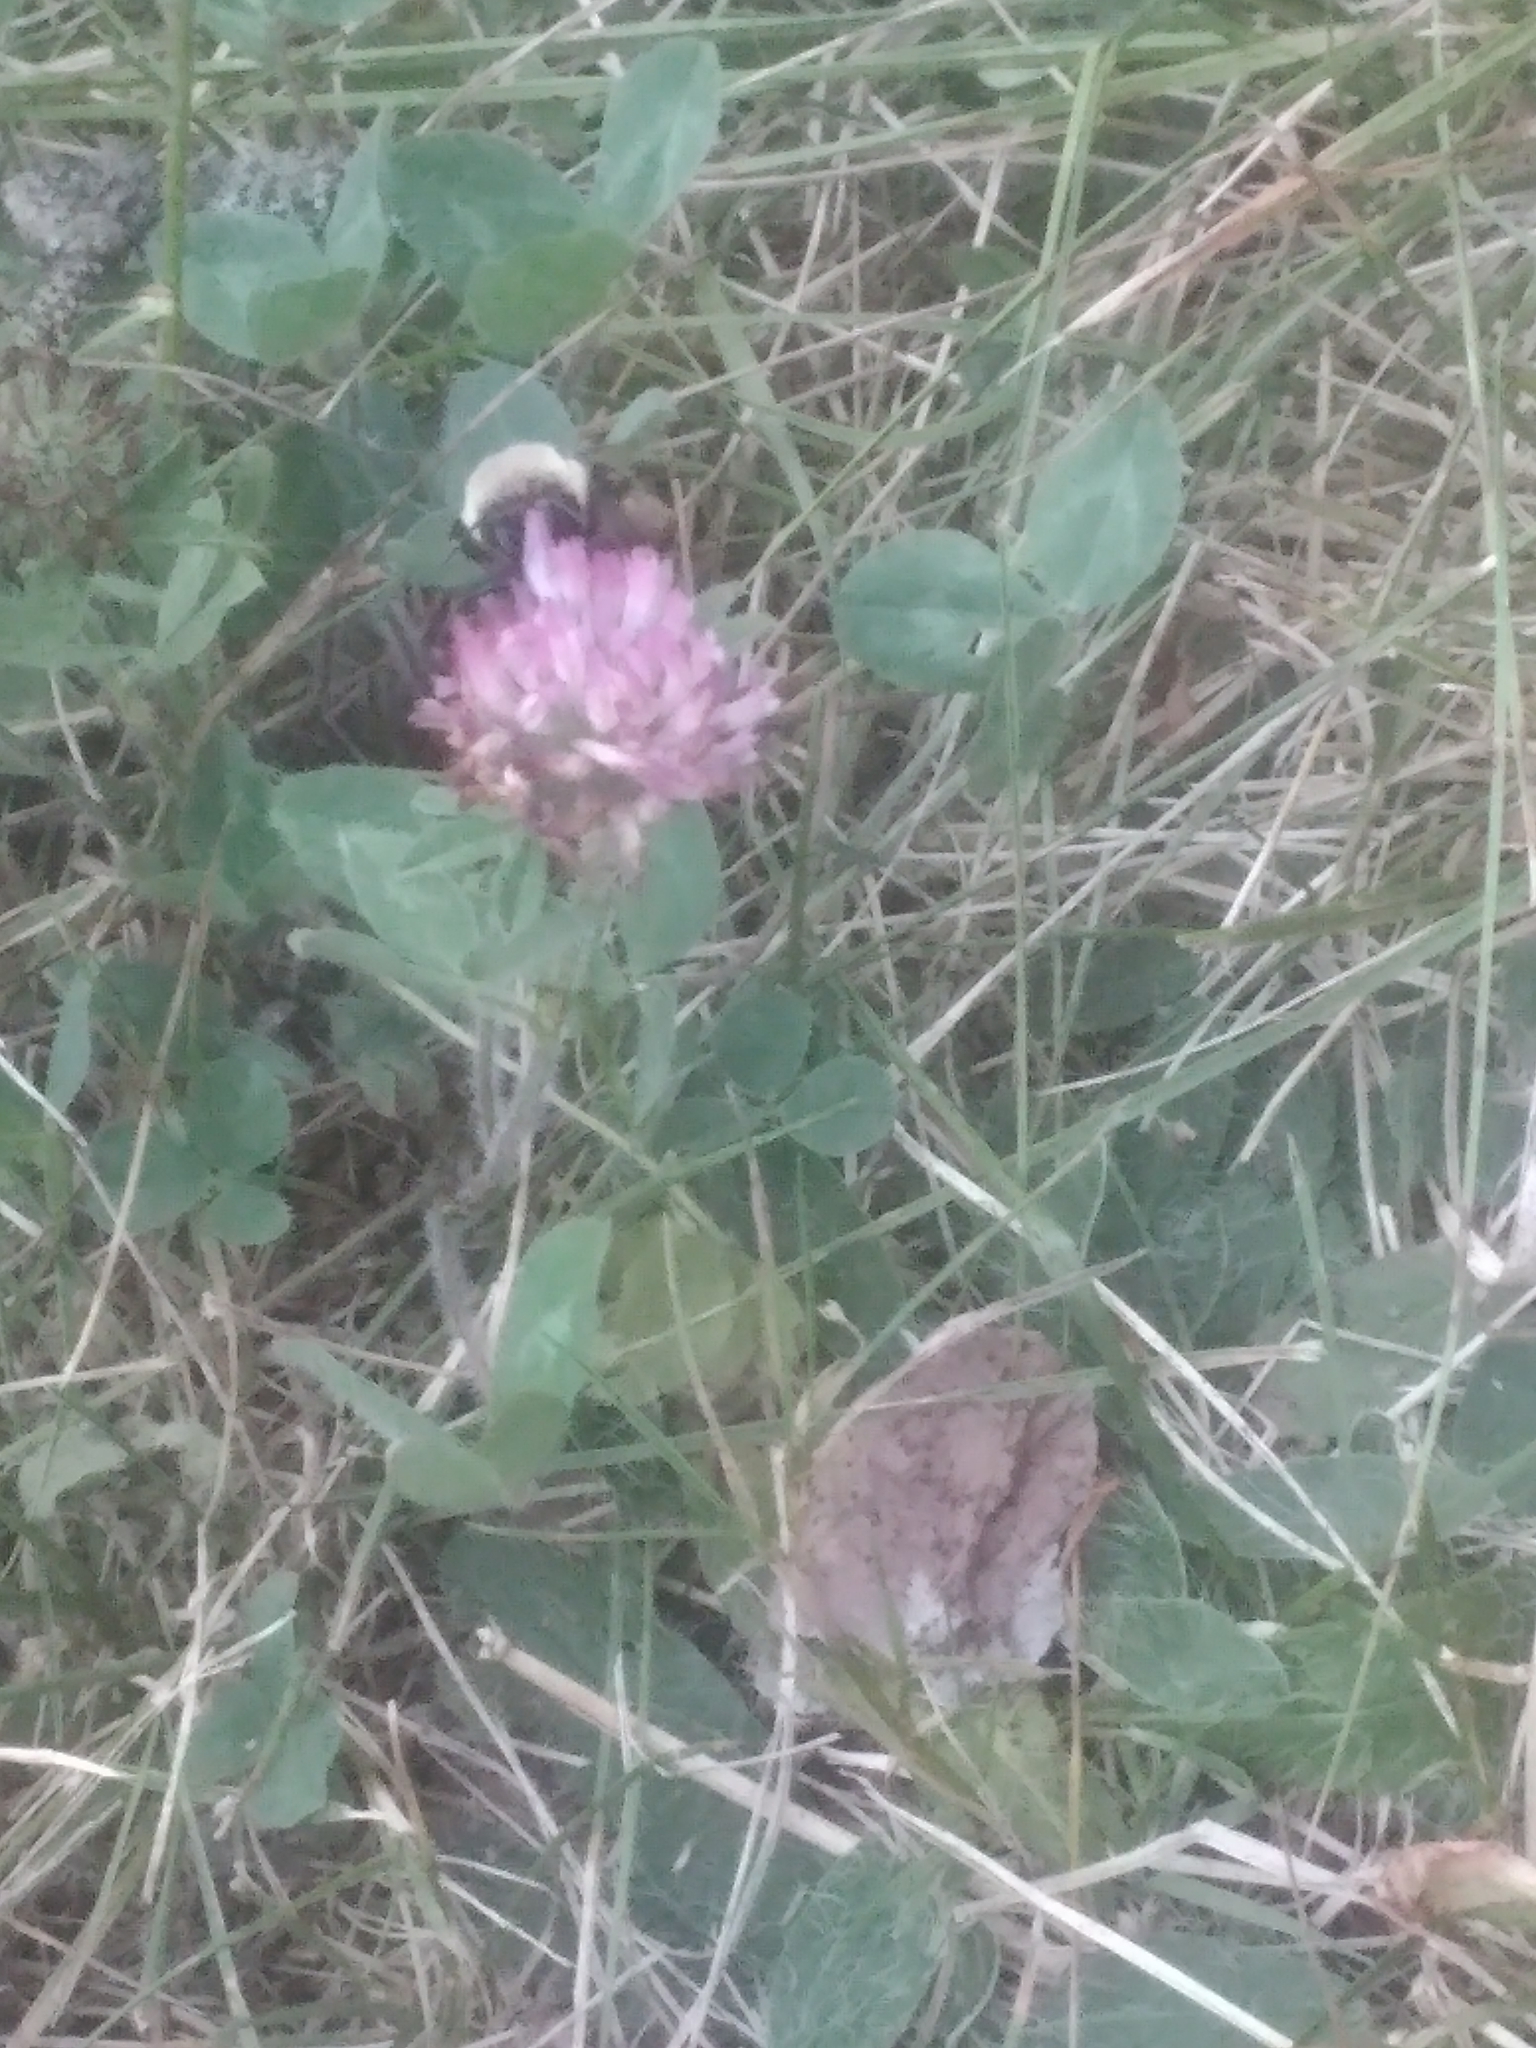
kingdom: Plantae
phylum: Tracheophyta
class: Magnoliopsida
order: Fabales
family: Fabaceae
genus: Trifolium
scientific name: Trifolium pratense
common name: Red clover
